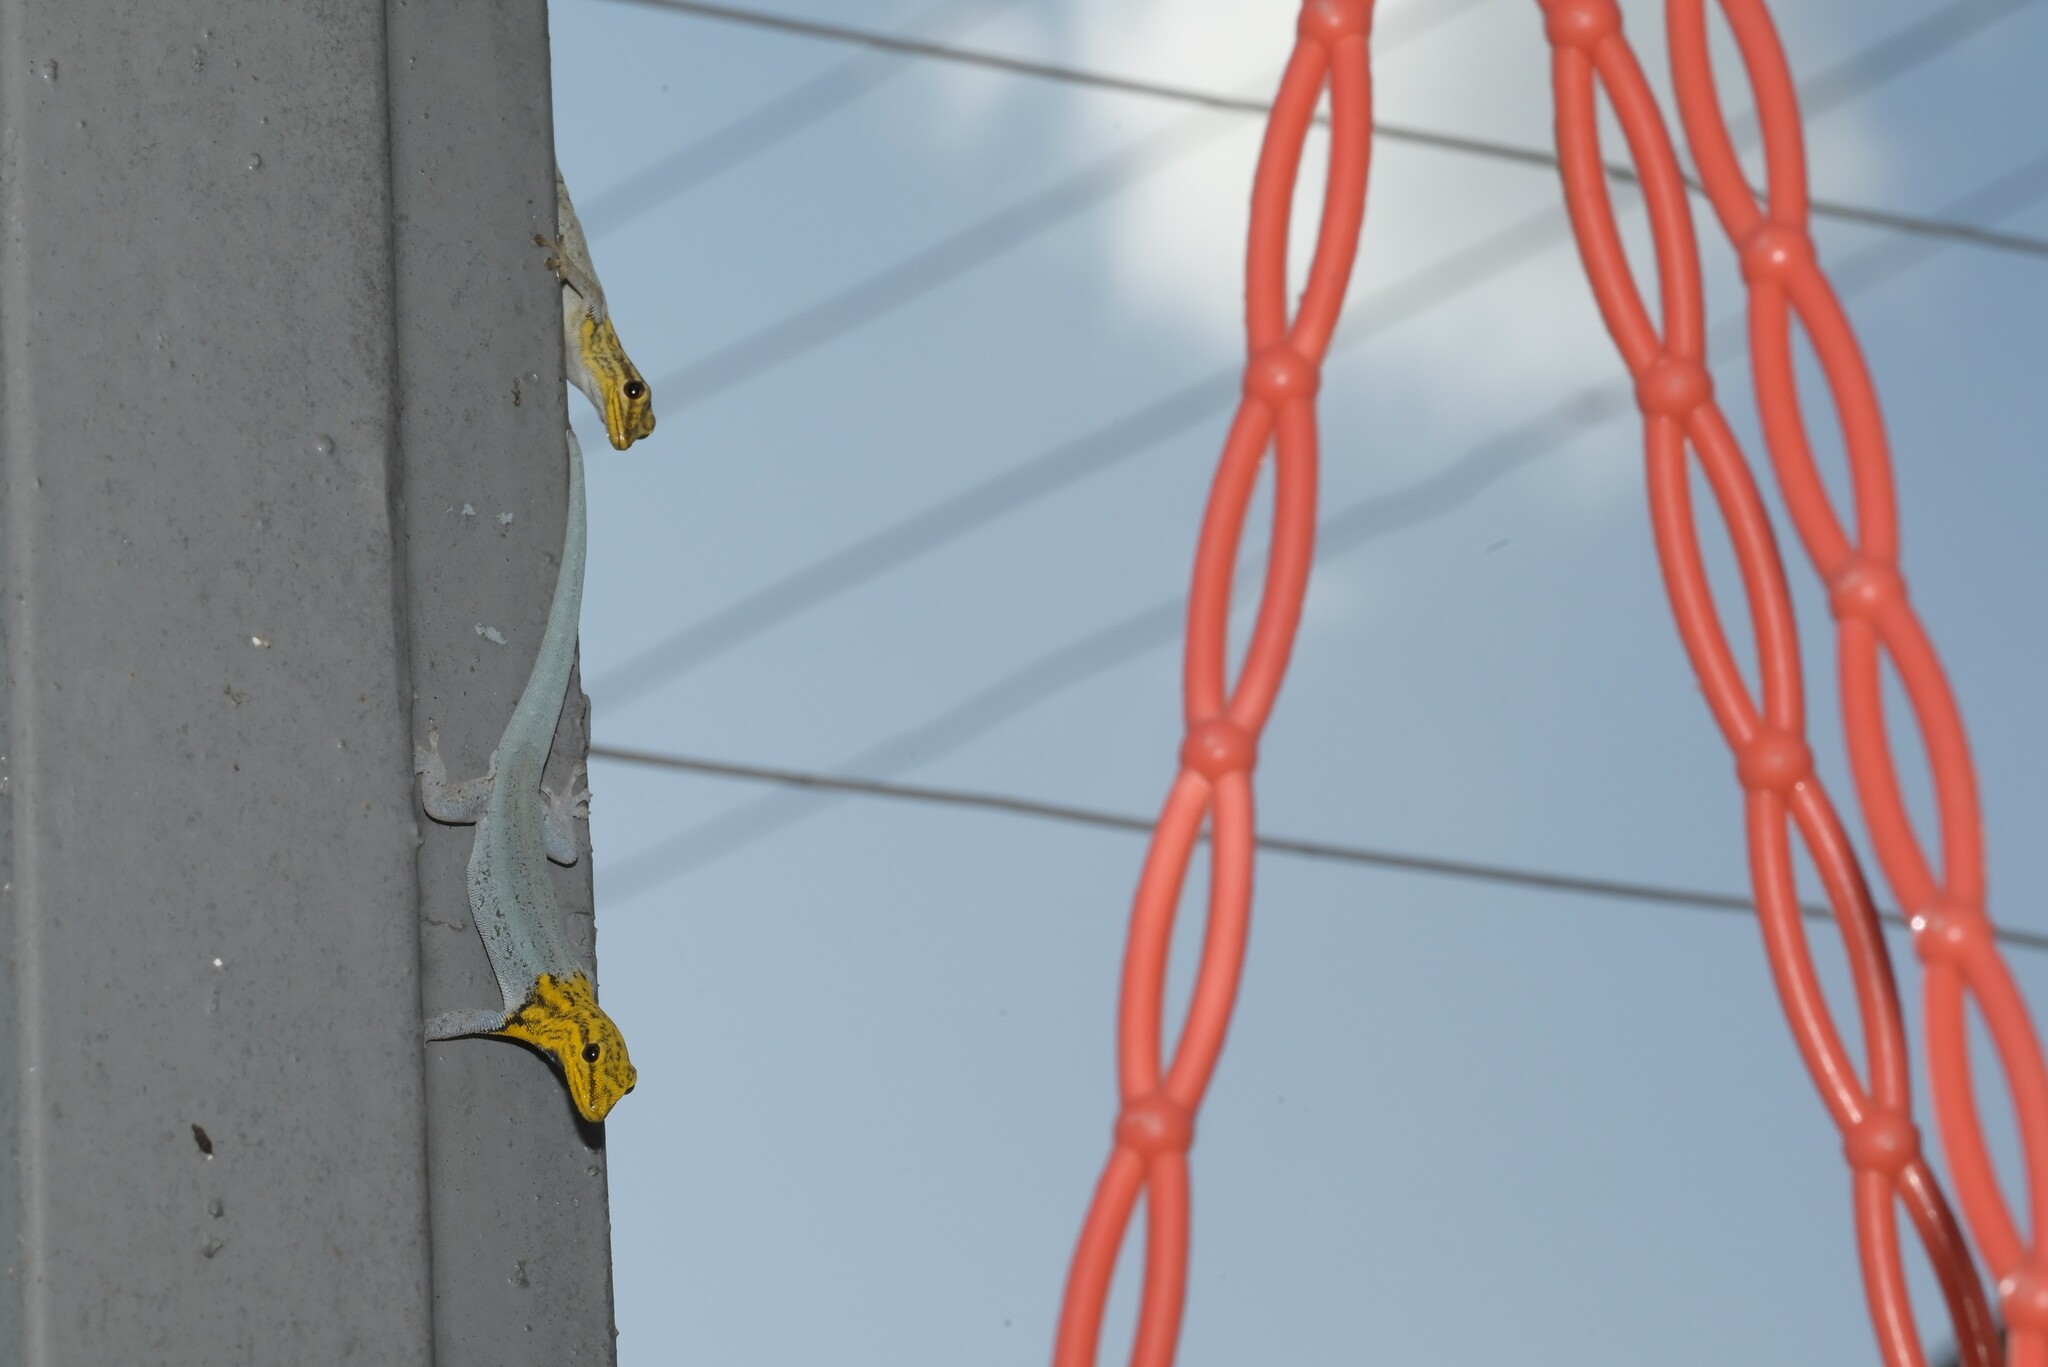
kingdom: Animalia
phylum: Chordata
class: Squamata
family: Gekkonidae
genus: Lygodactylus
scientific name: Lygodactylus picturatus
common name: Painted dwarf gecko
